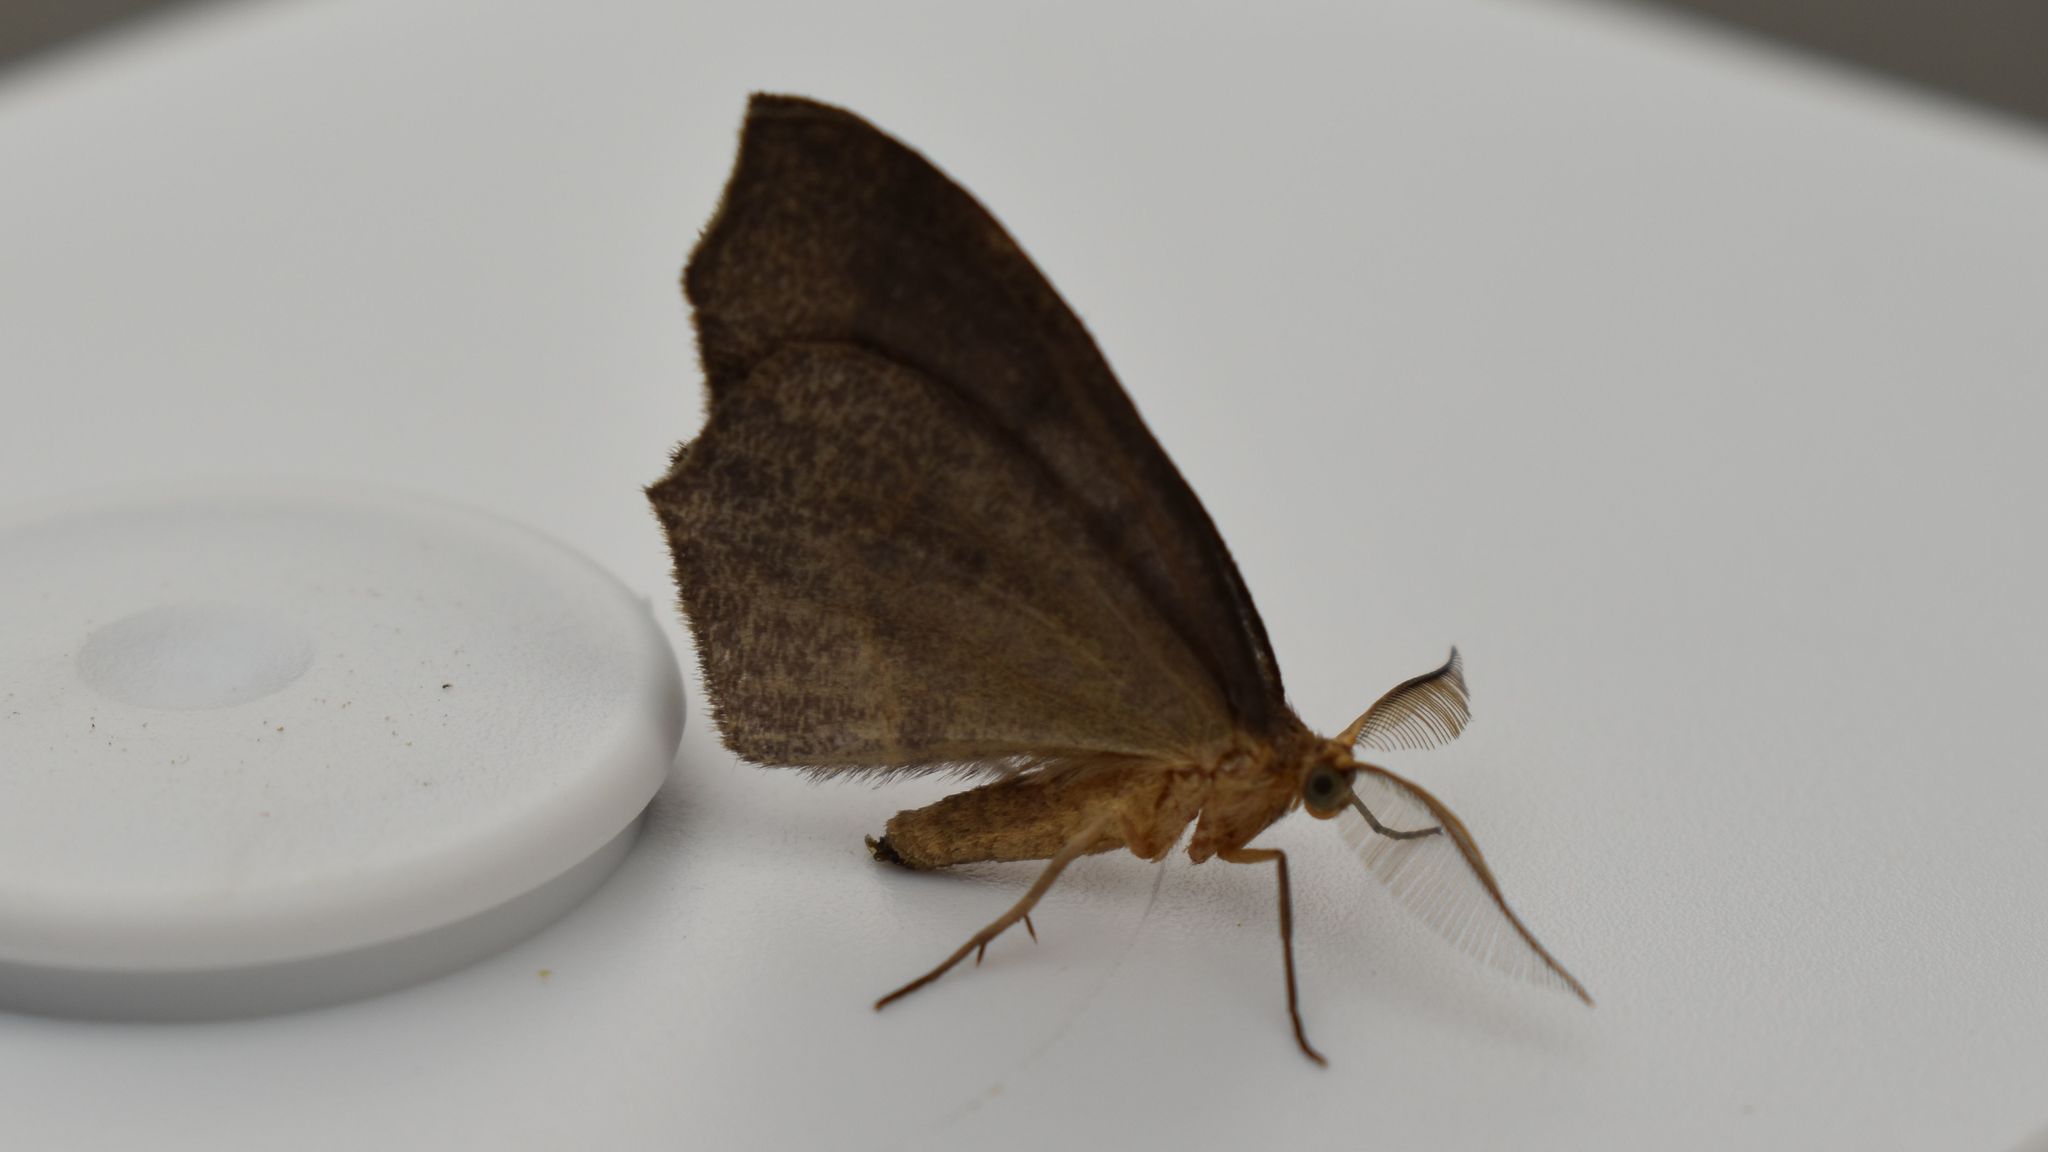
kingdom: Animalia
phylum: Arthropoda
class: Insecta
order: Lepidoptera
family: Geometridae
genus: Lambdina
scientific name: Lambdina fiscellaria
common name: Hemlock looper
